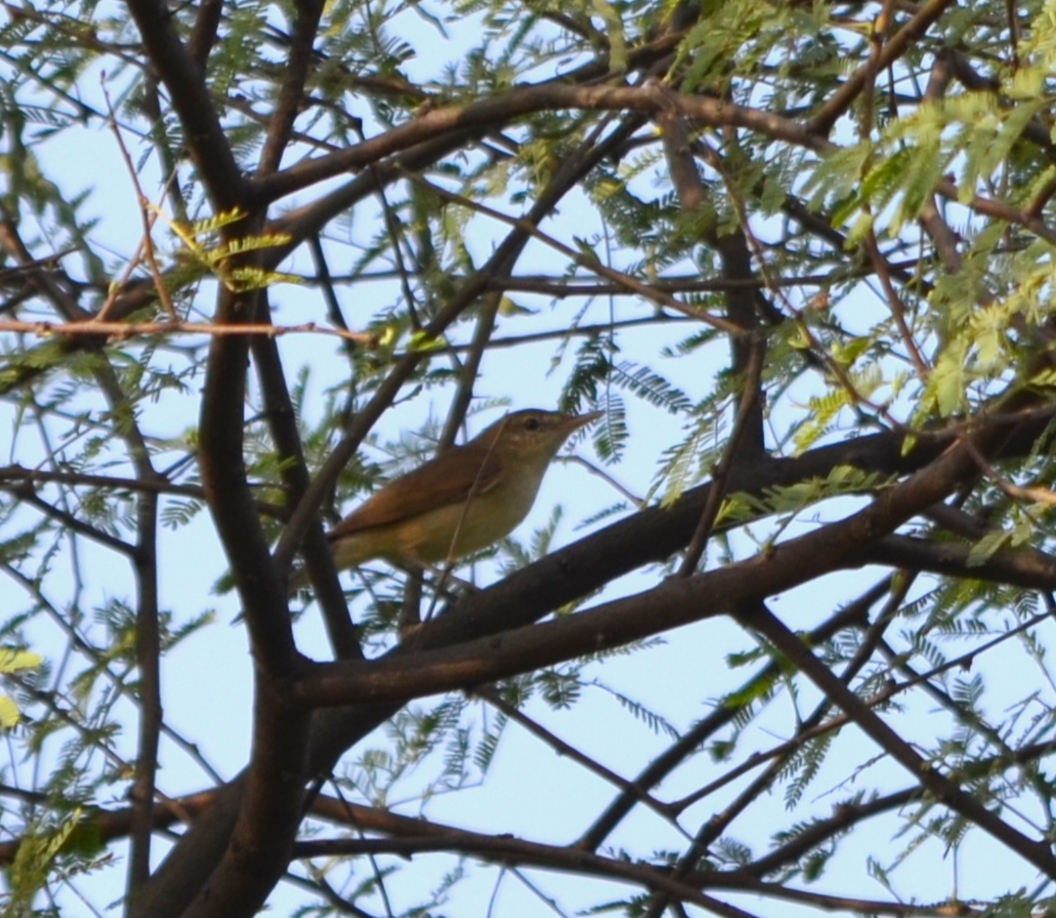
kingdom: Animalia
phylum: Chordata
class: Aves
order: Passeriformes
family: Acrocephalidae
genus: Acrocephalus
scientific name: Acrocephalus dumetorum
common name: Blyth's reed warbler
